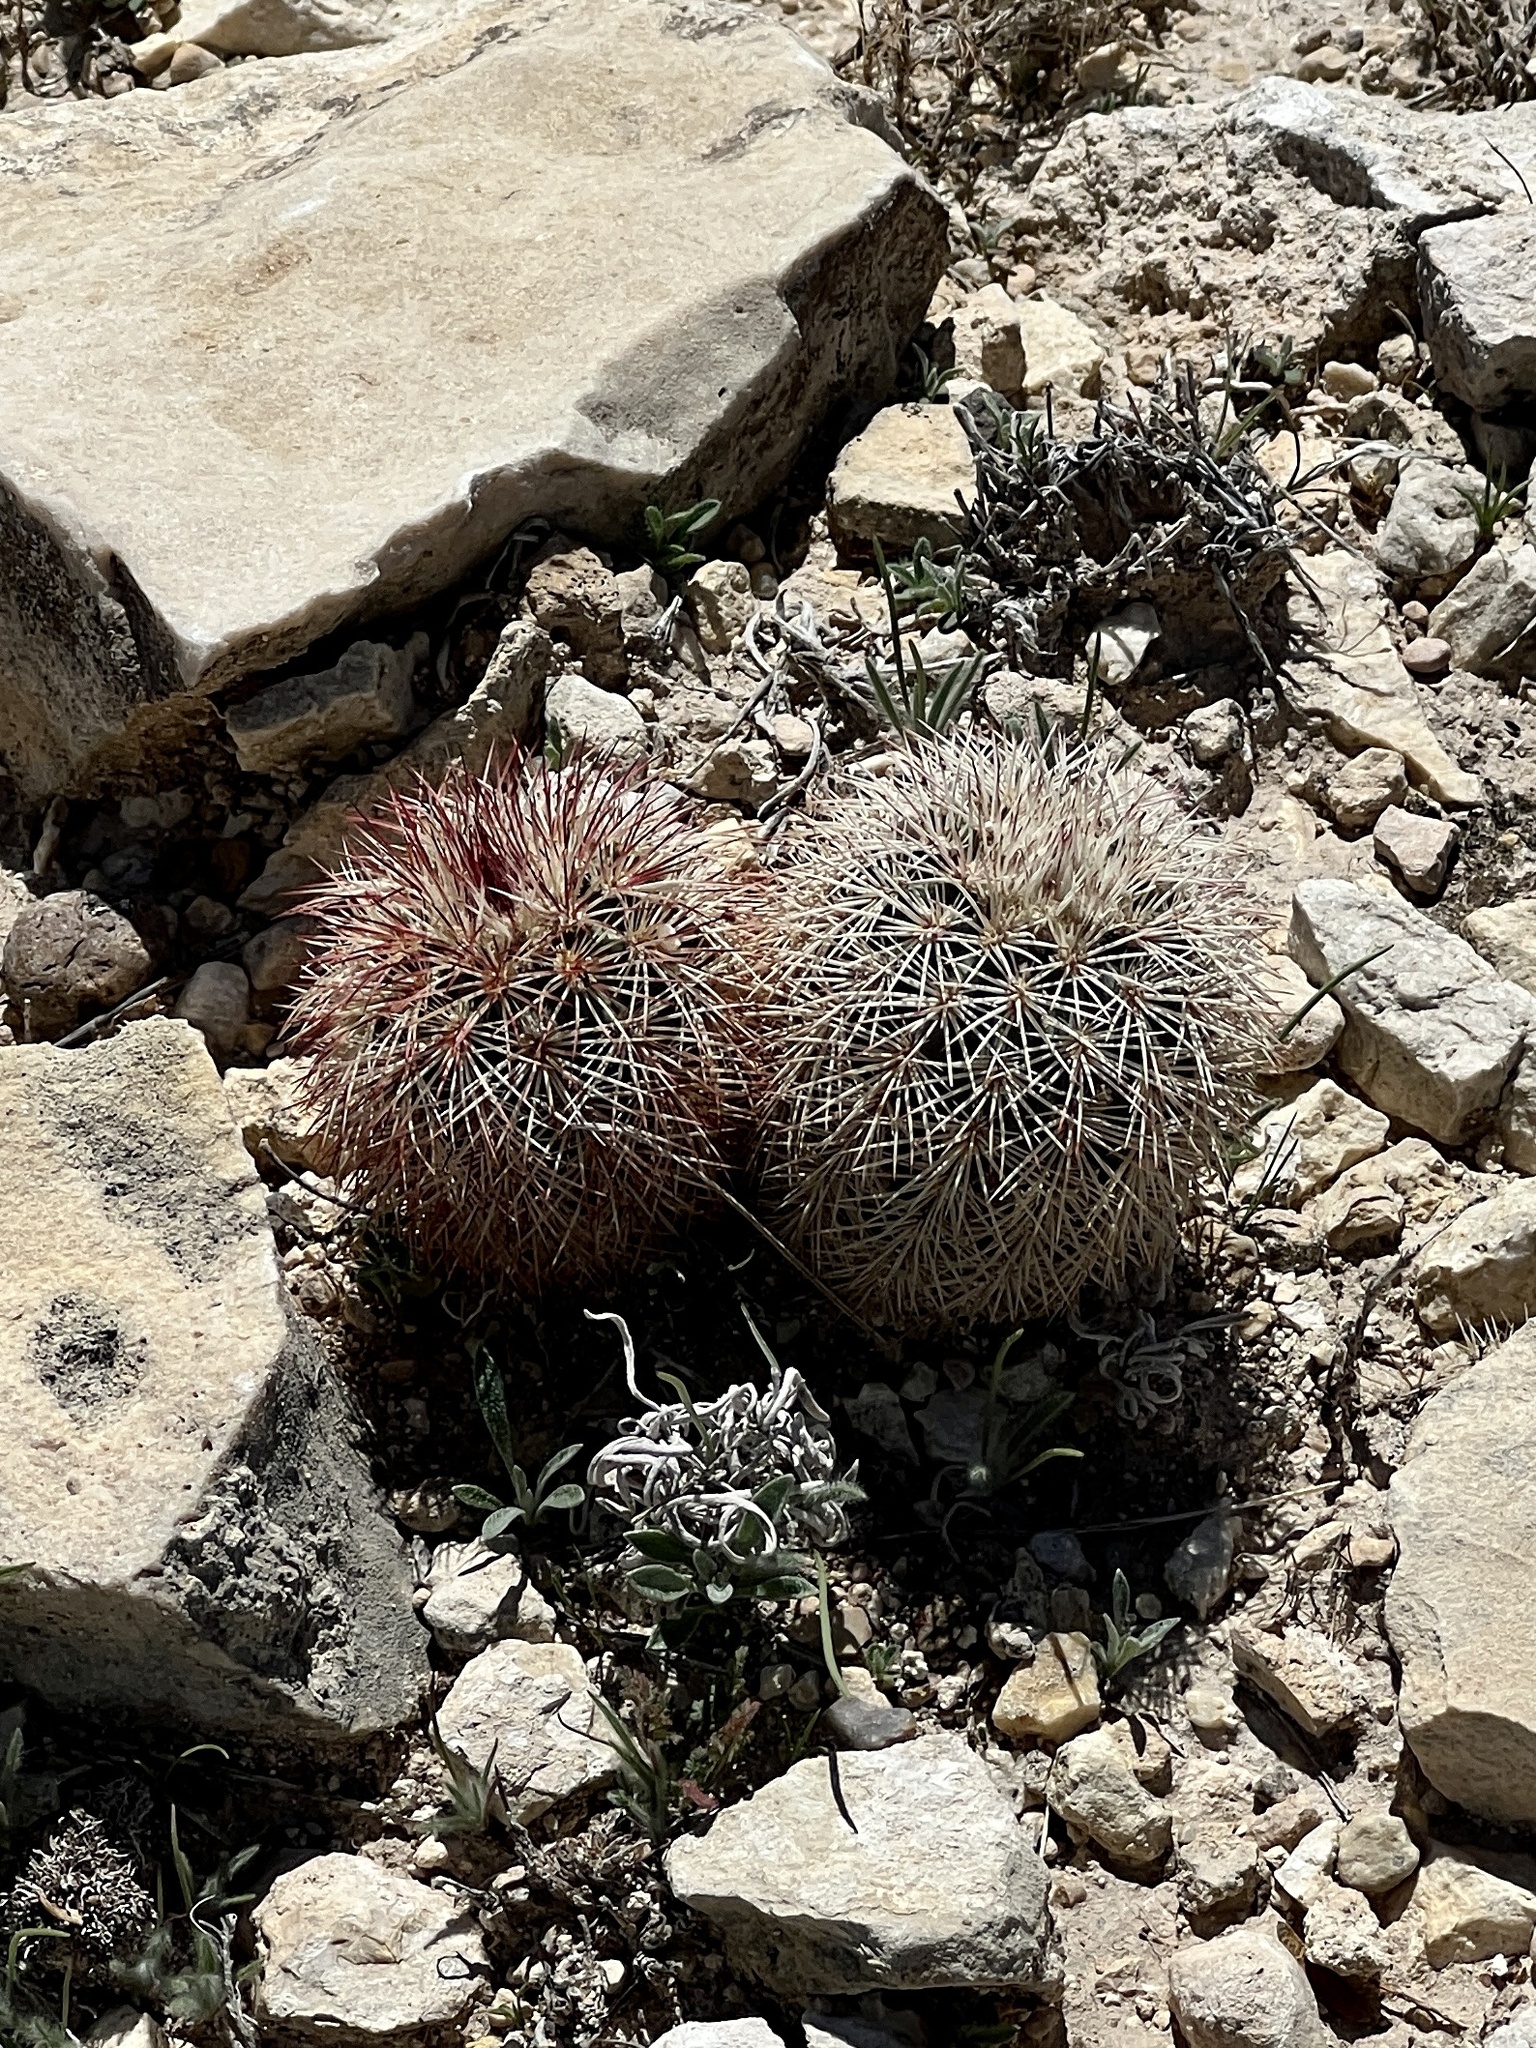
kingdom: Plantae
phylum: Tracheophyta
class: Magnoliopsida
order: Caryophyllales
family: Cactaceae
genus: Echinocereus
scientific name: Echinocereus dasyacanthus
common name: Spiny hedgehog cactus
